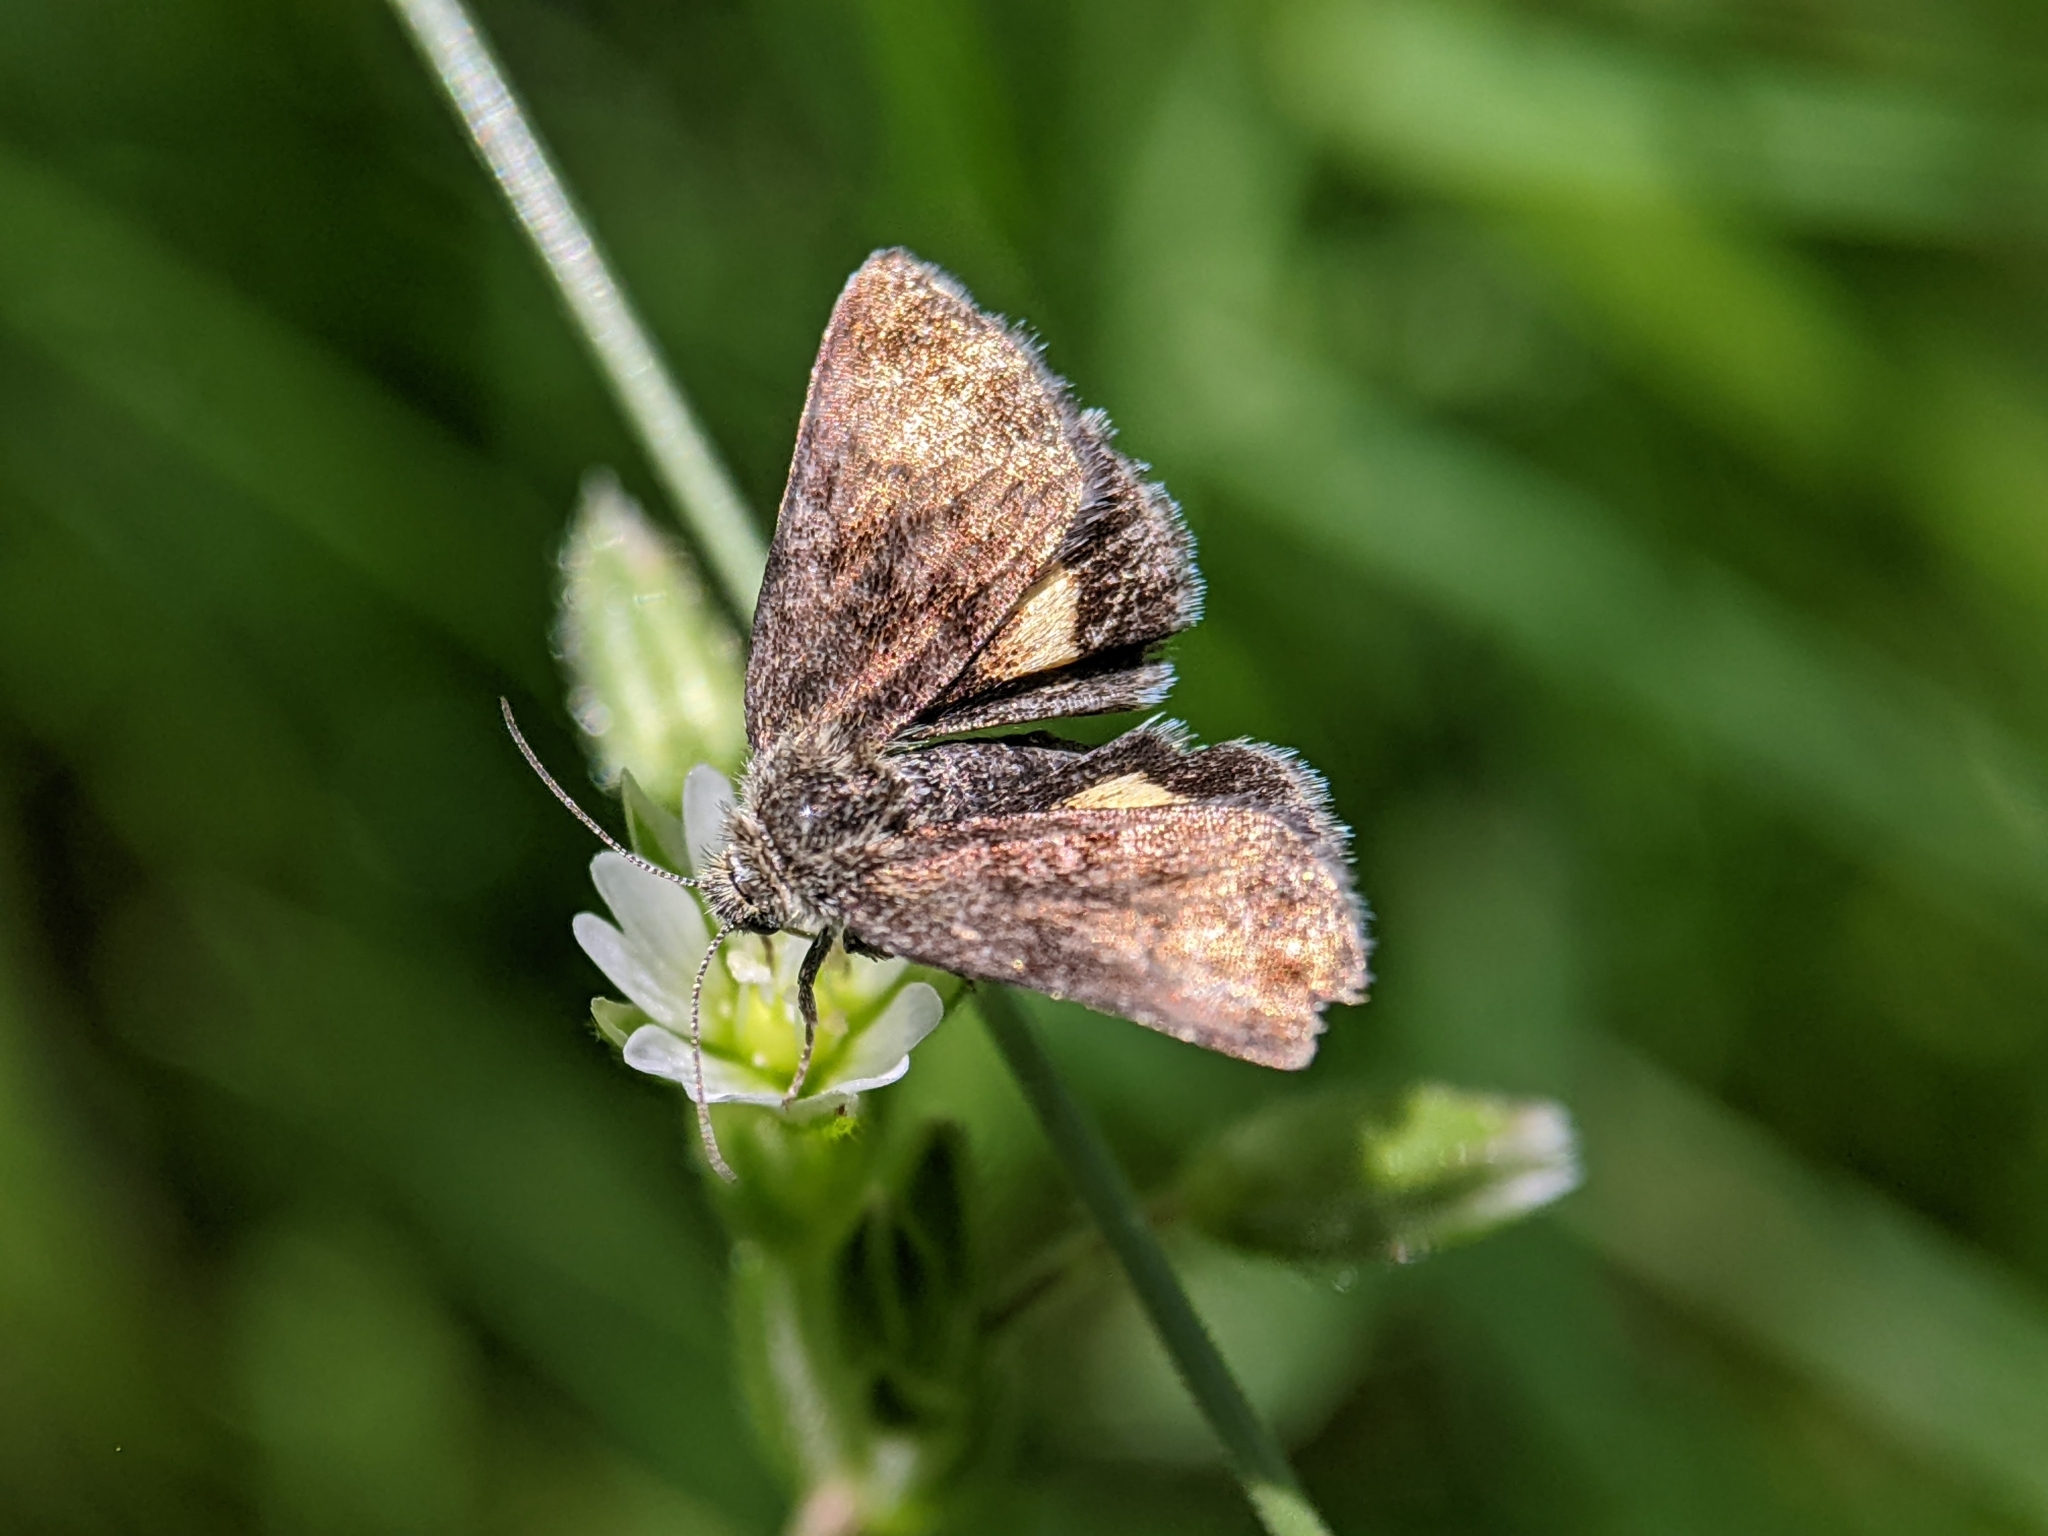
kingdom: Animalia
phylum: Arthropoda
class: Insecta
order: Lepidoptera
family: Noctuidae
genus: Panemeria
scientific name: Panemeria tenebrata
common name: Small yellow underwing
